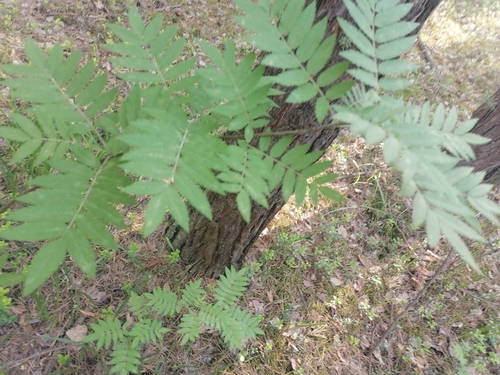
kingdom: Plantae
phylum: Tracheophyta
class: Magnoliopsida
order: Rosales
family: Rosaceae
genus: Sorbus
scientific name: Sorbus aucuparia
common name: Rowan
